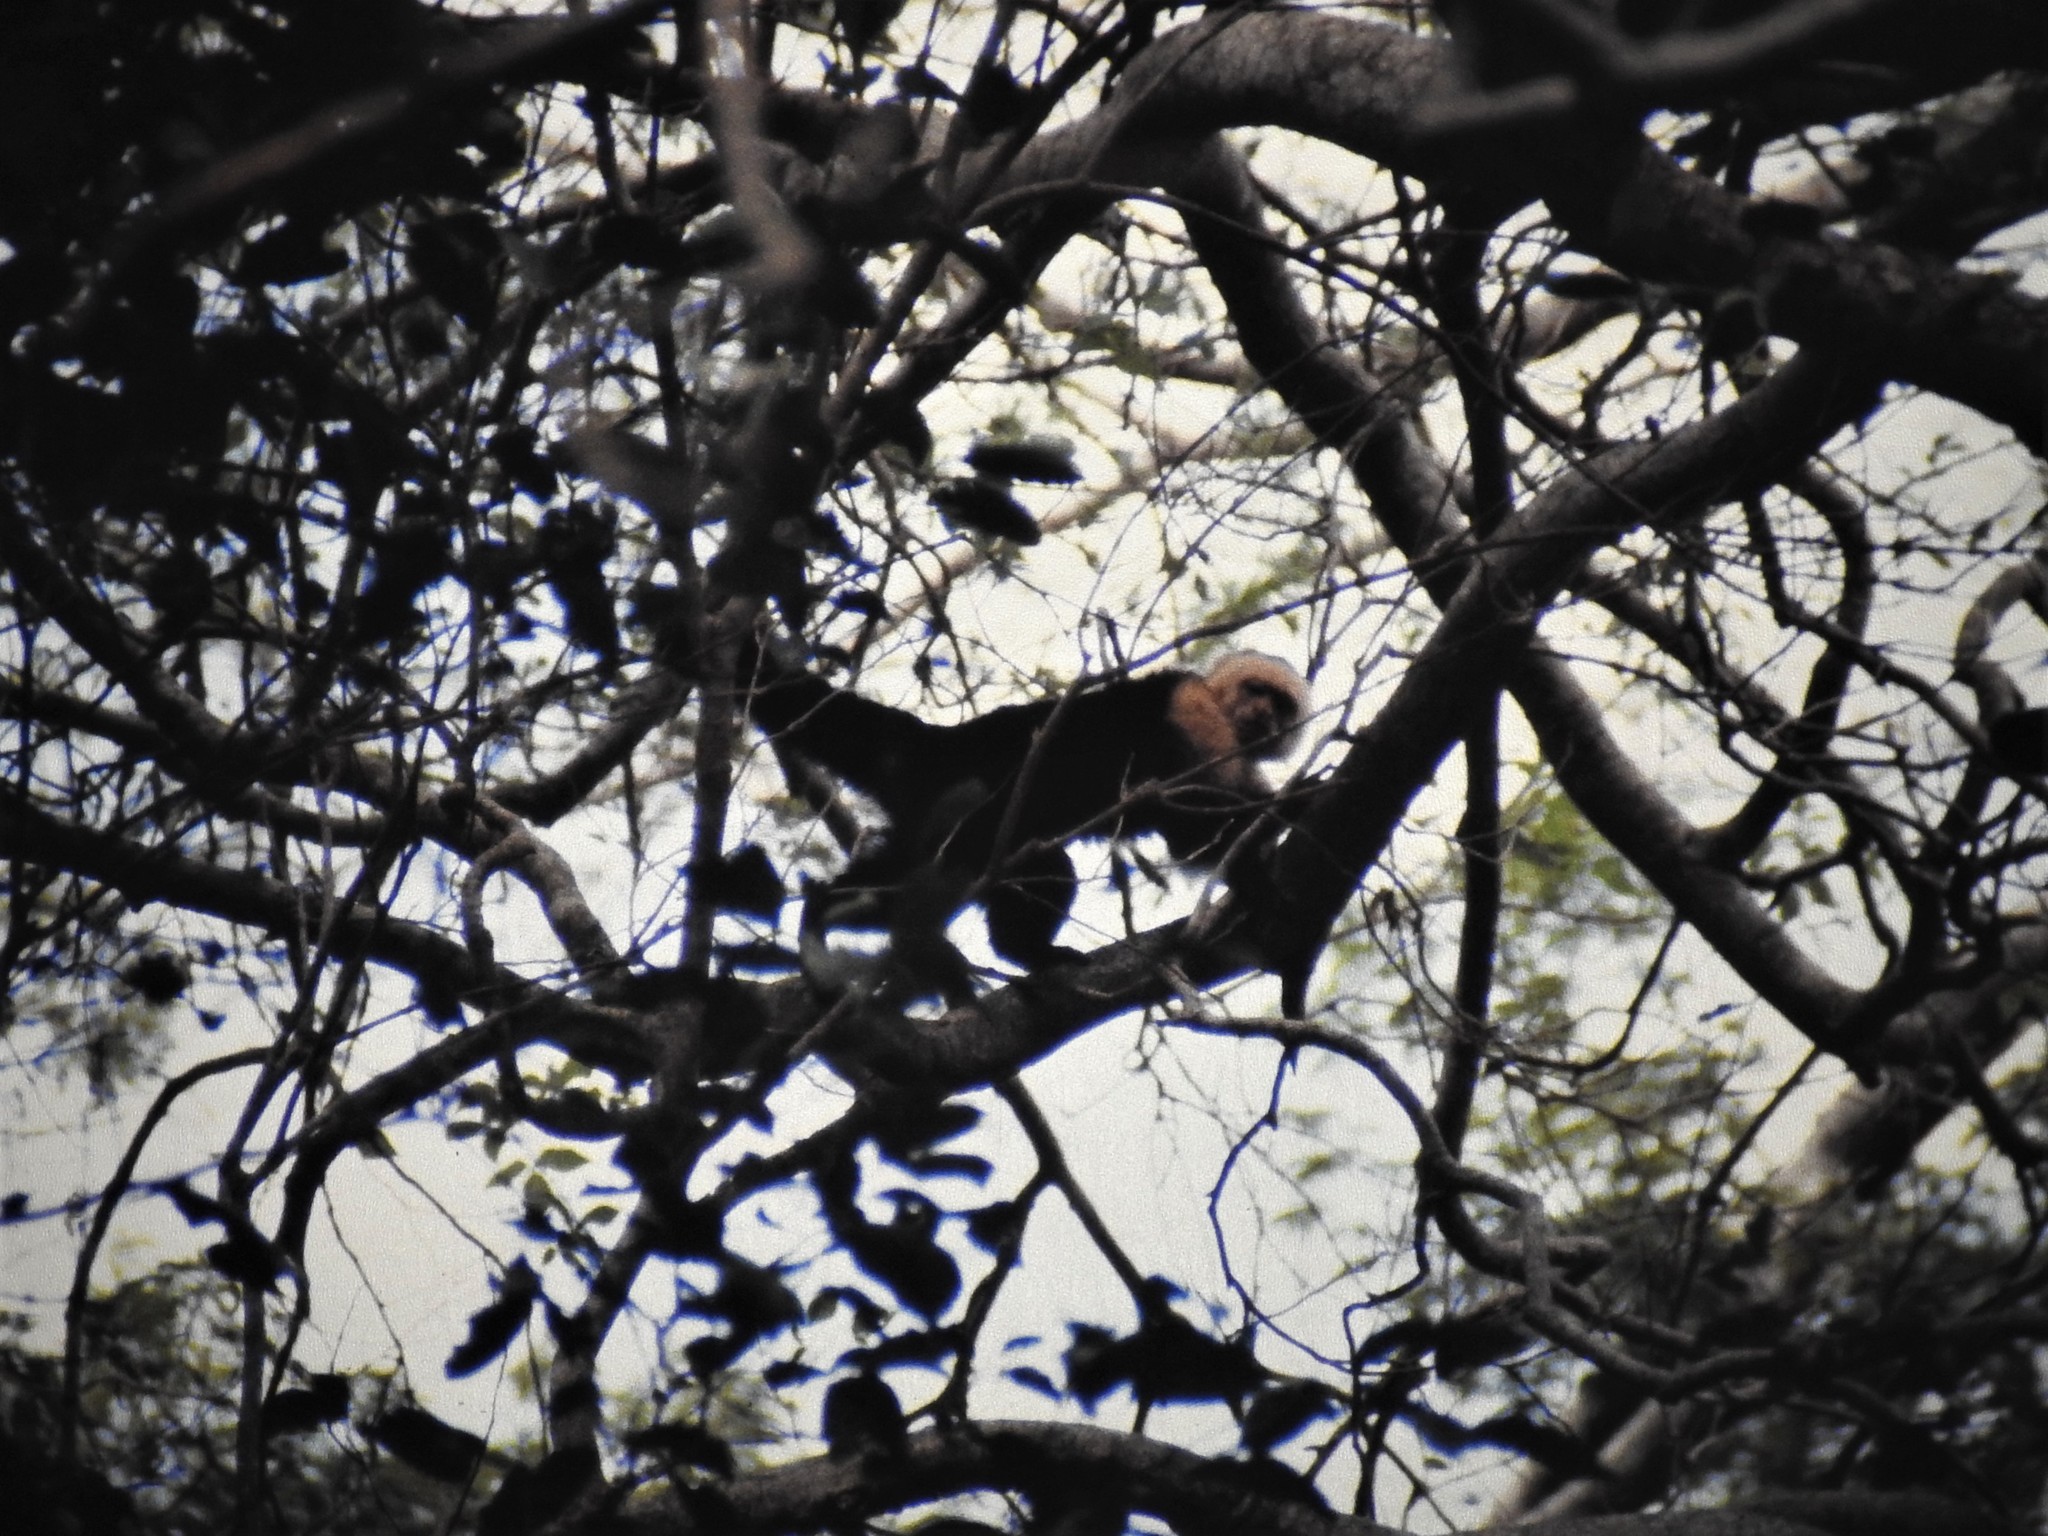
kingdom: Animalia
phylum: Chordata
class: Mammalia
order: Primates
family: Cebidae
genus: Cebus
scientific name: Cebus imitator
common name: Panamanian white-faced capuchin
